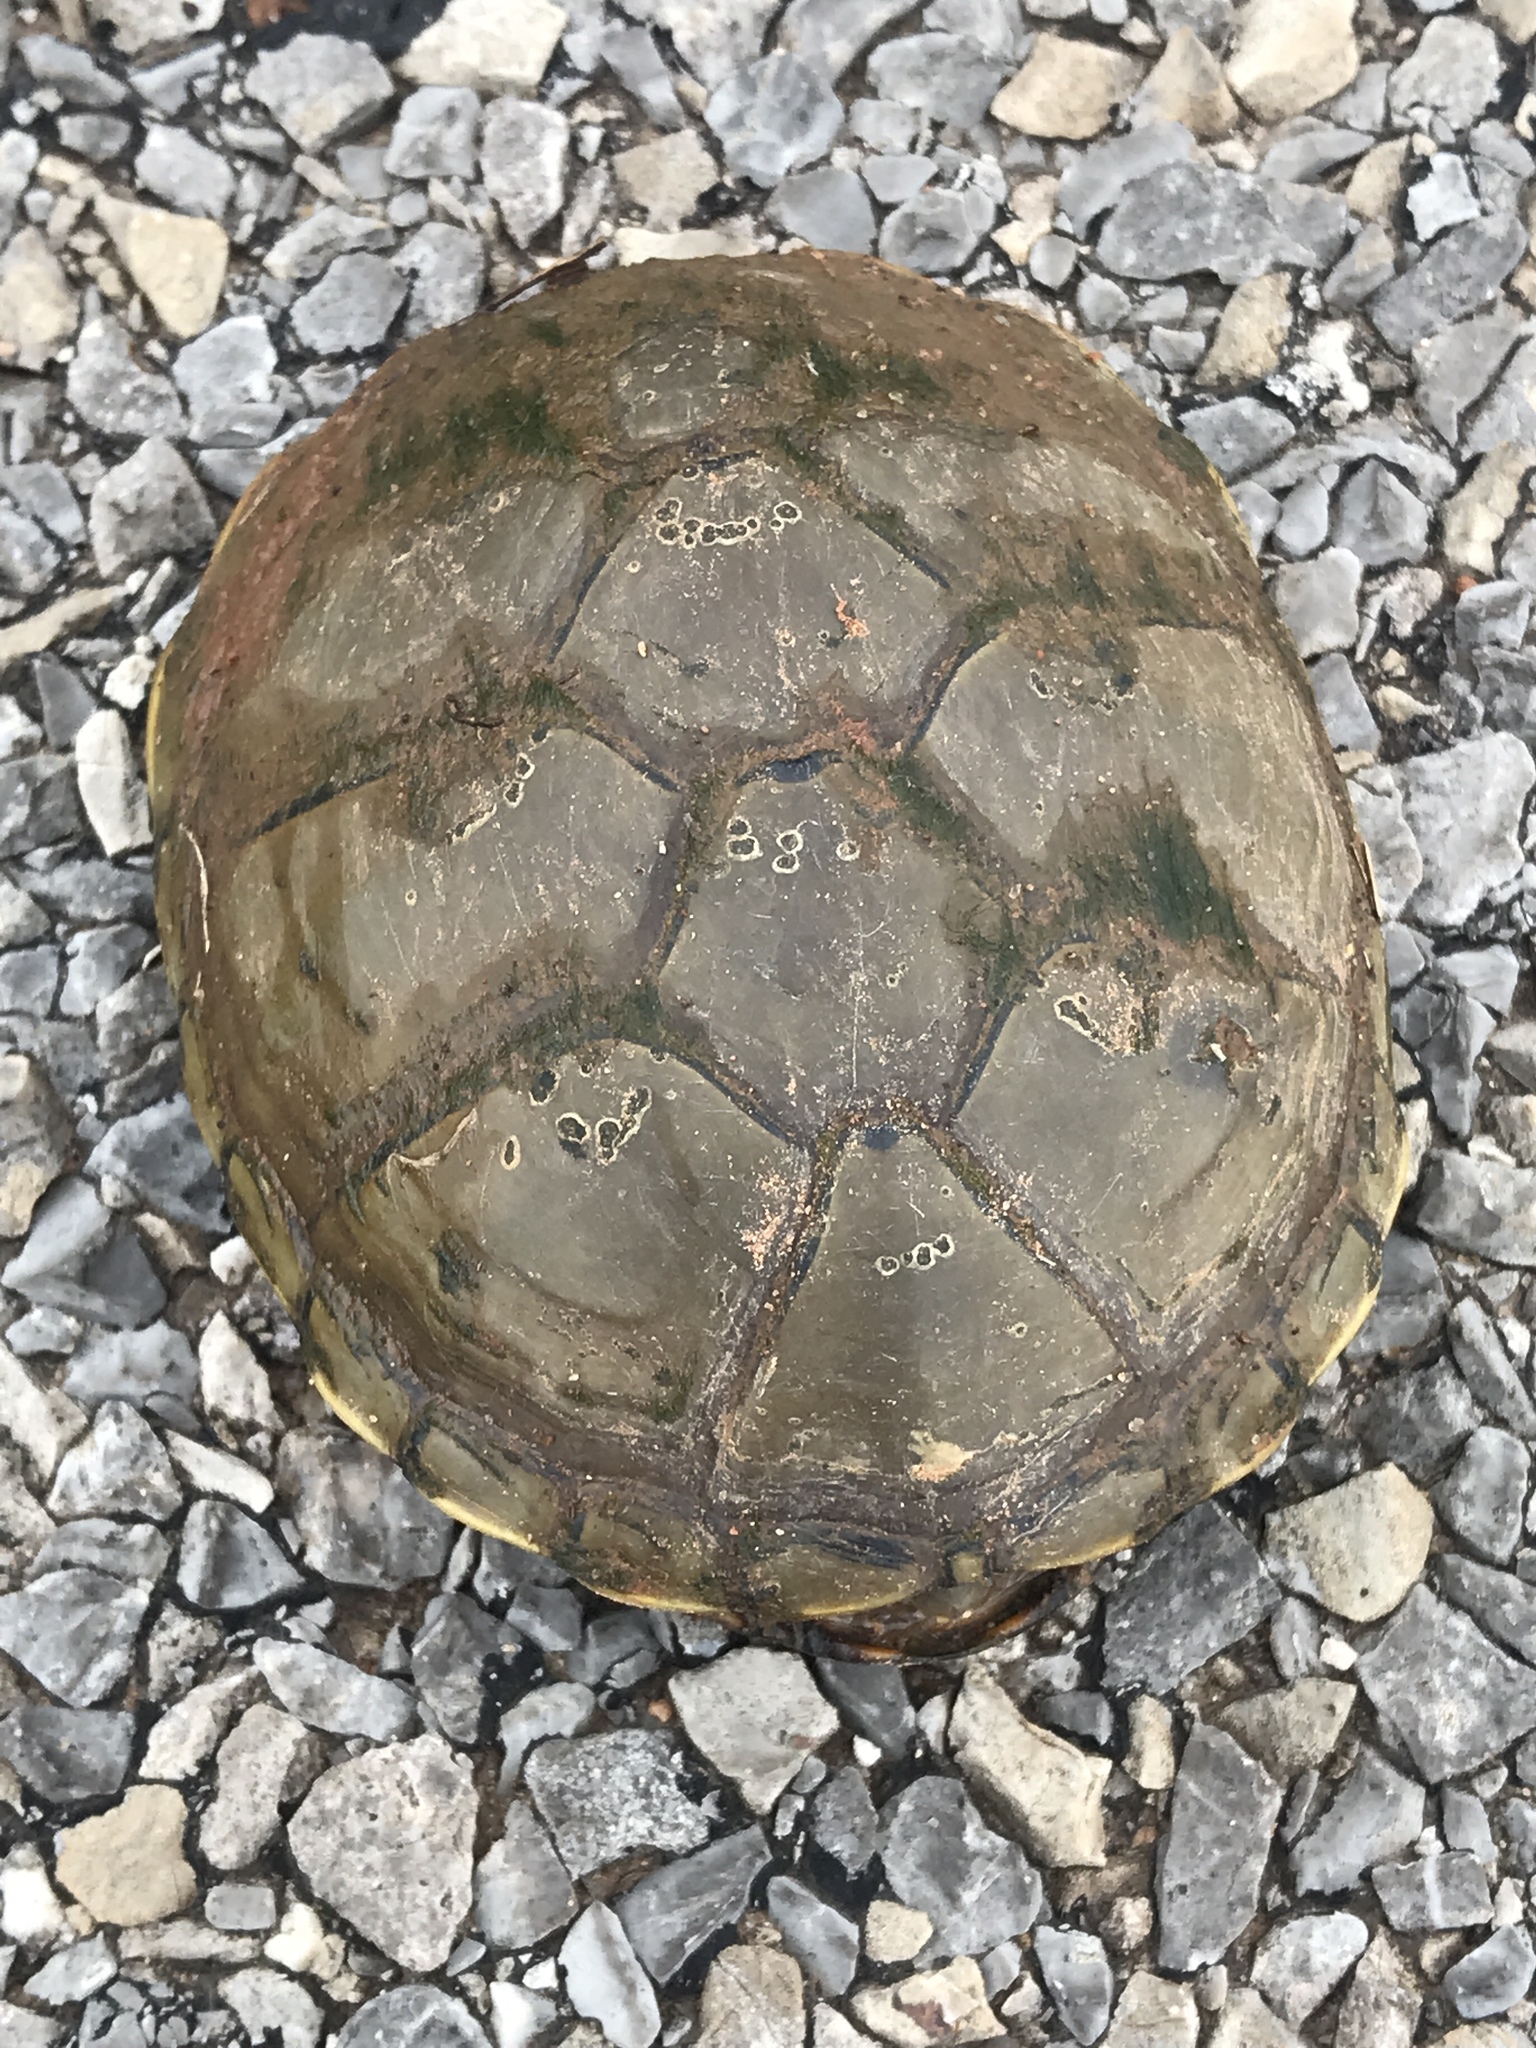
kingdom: Animalia
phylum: Chordata
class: Testudines
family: Kinosternidae
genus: Kinosternon
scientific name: Kinosternon flavescens
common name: Yellow mud turtle
